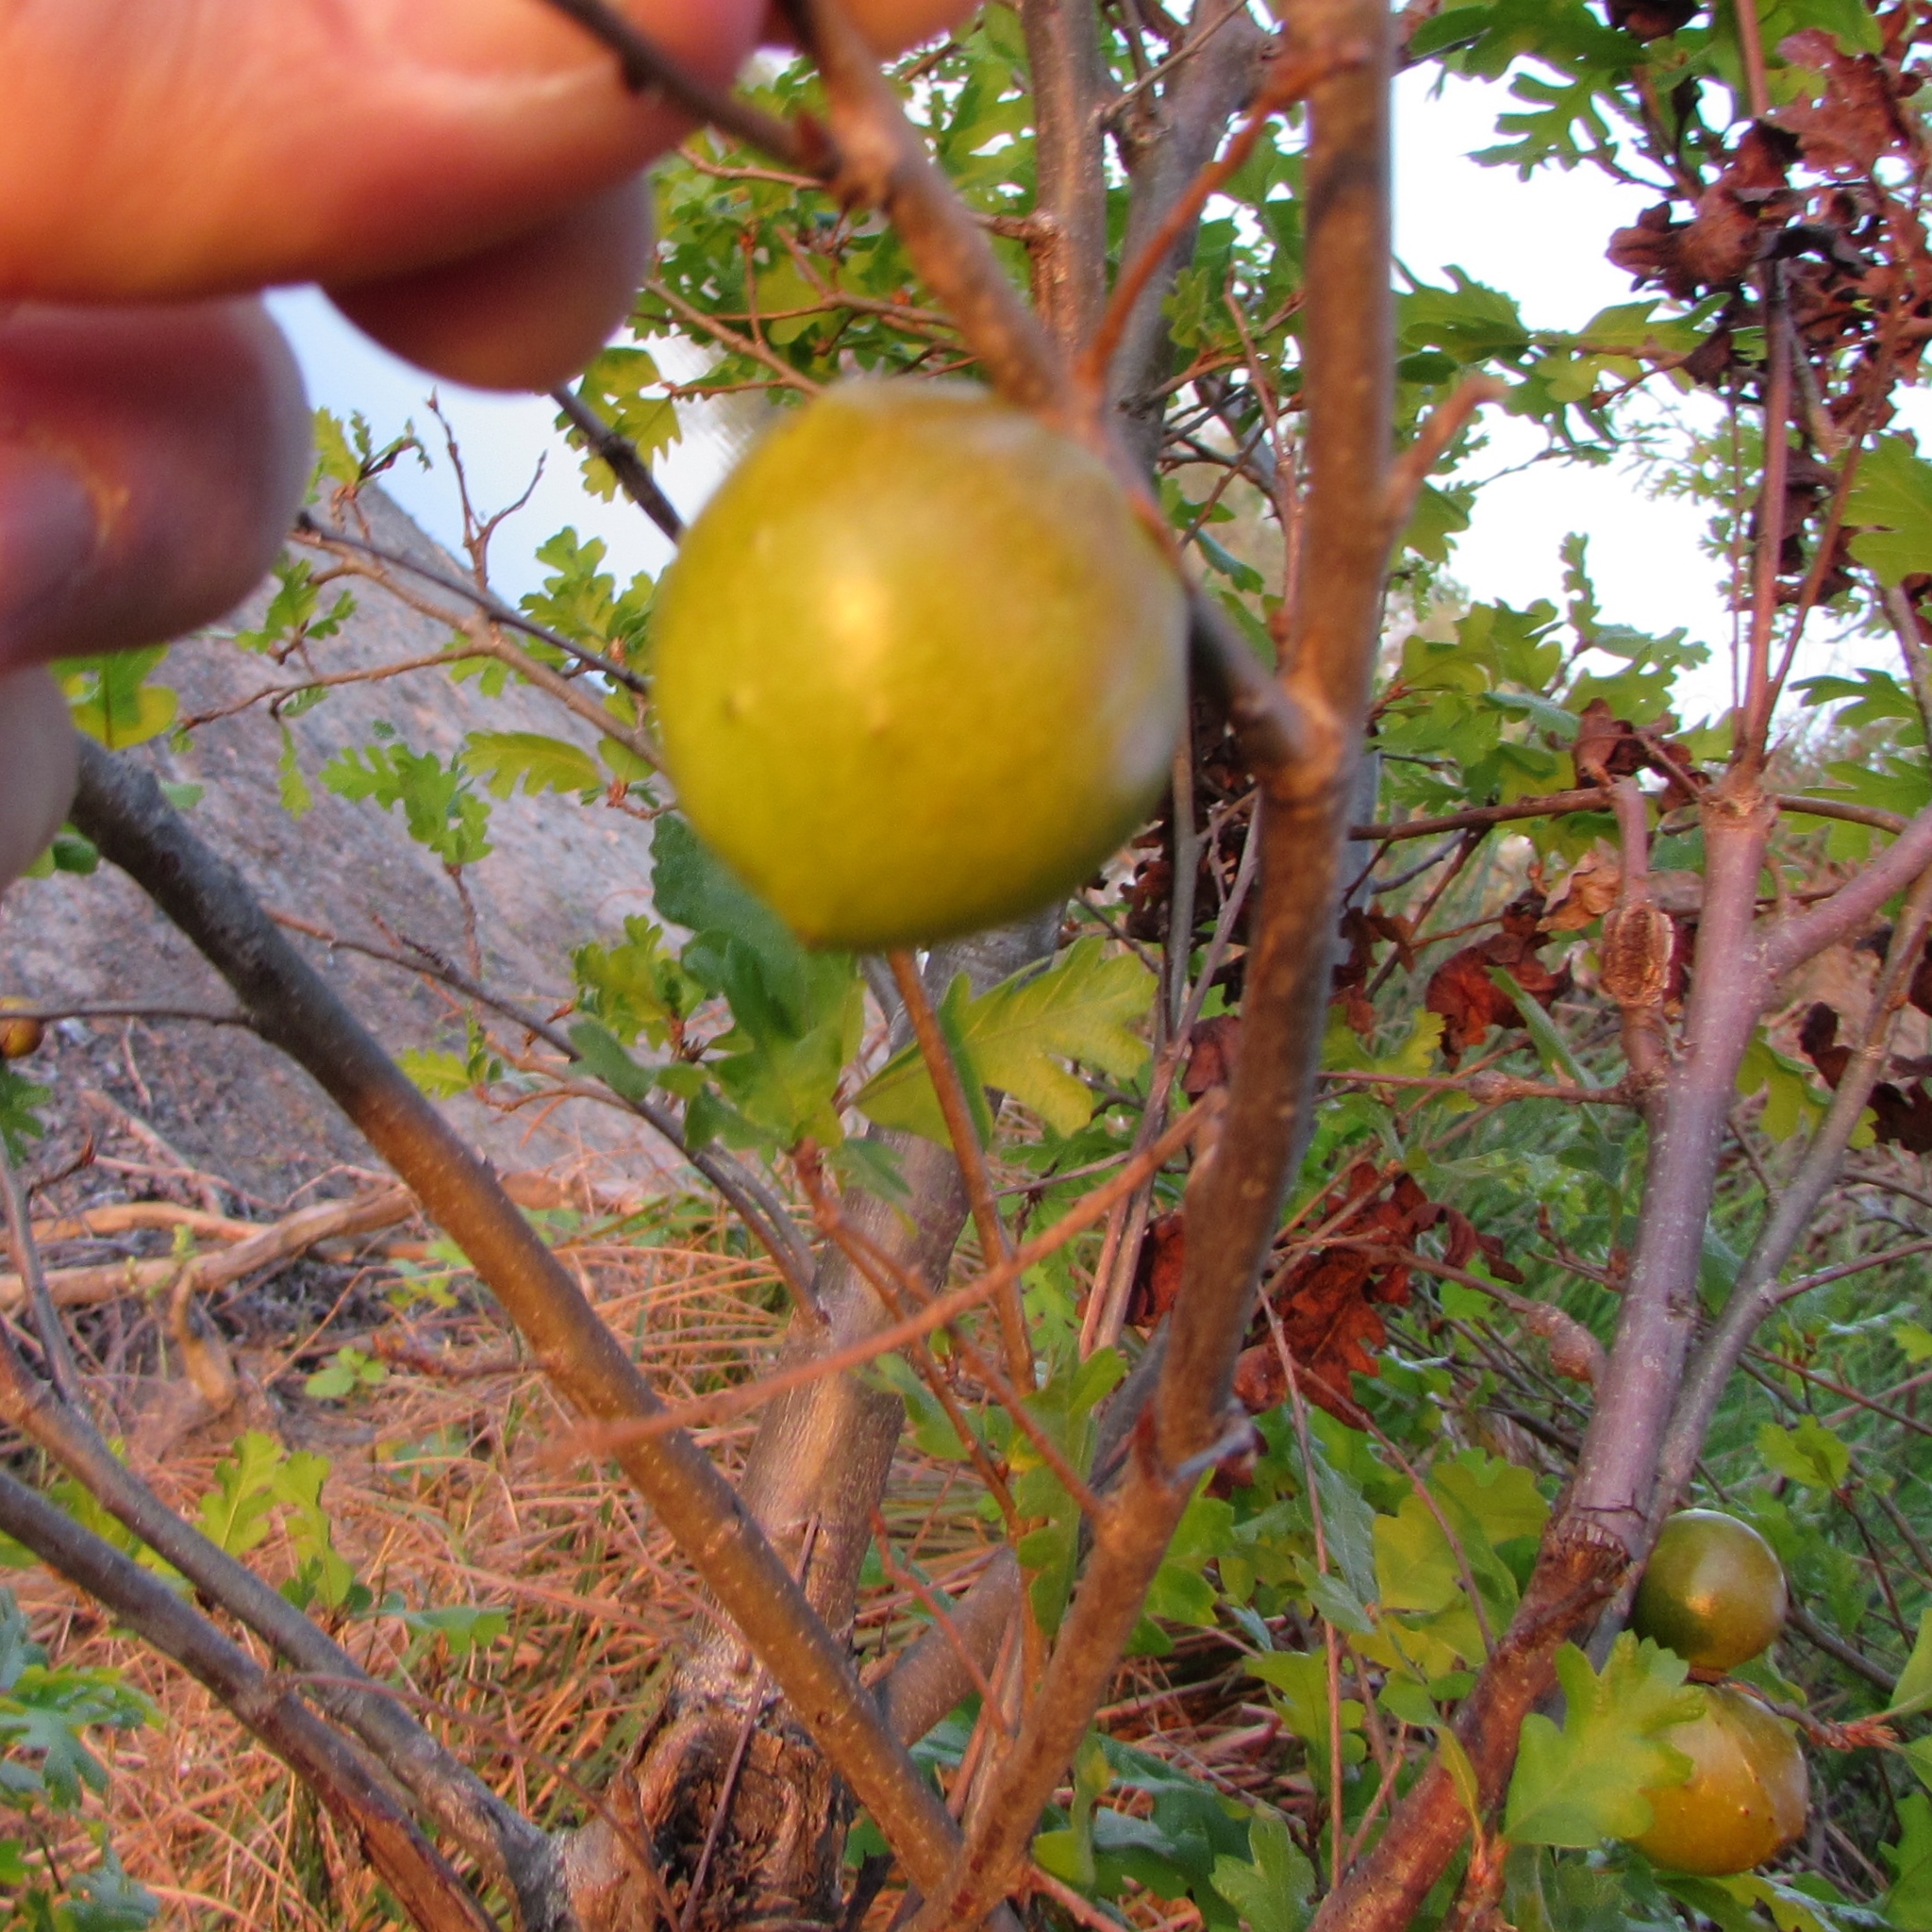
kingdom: Animalia
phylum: Arthropoda
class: Insecta
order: Hymenoptera
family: Cynipidae
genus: Andricus
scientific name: Andricus quercuscalifornicus
